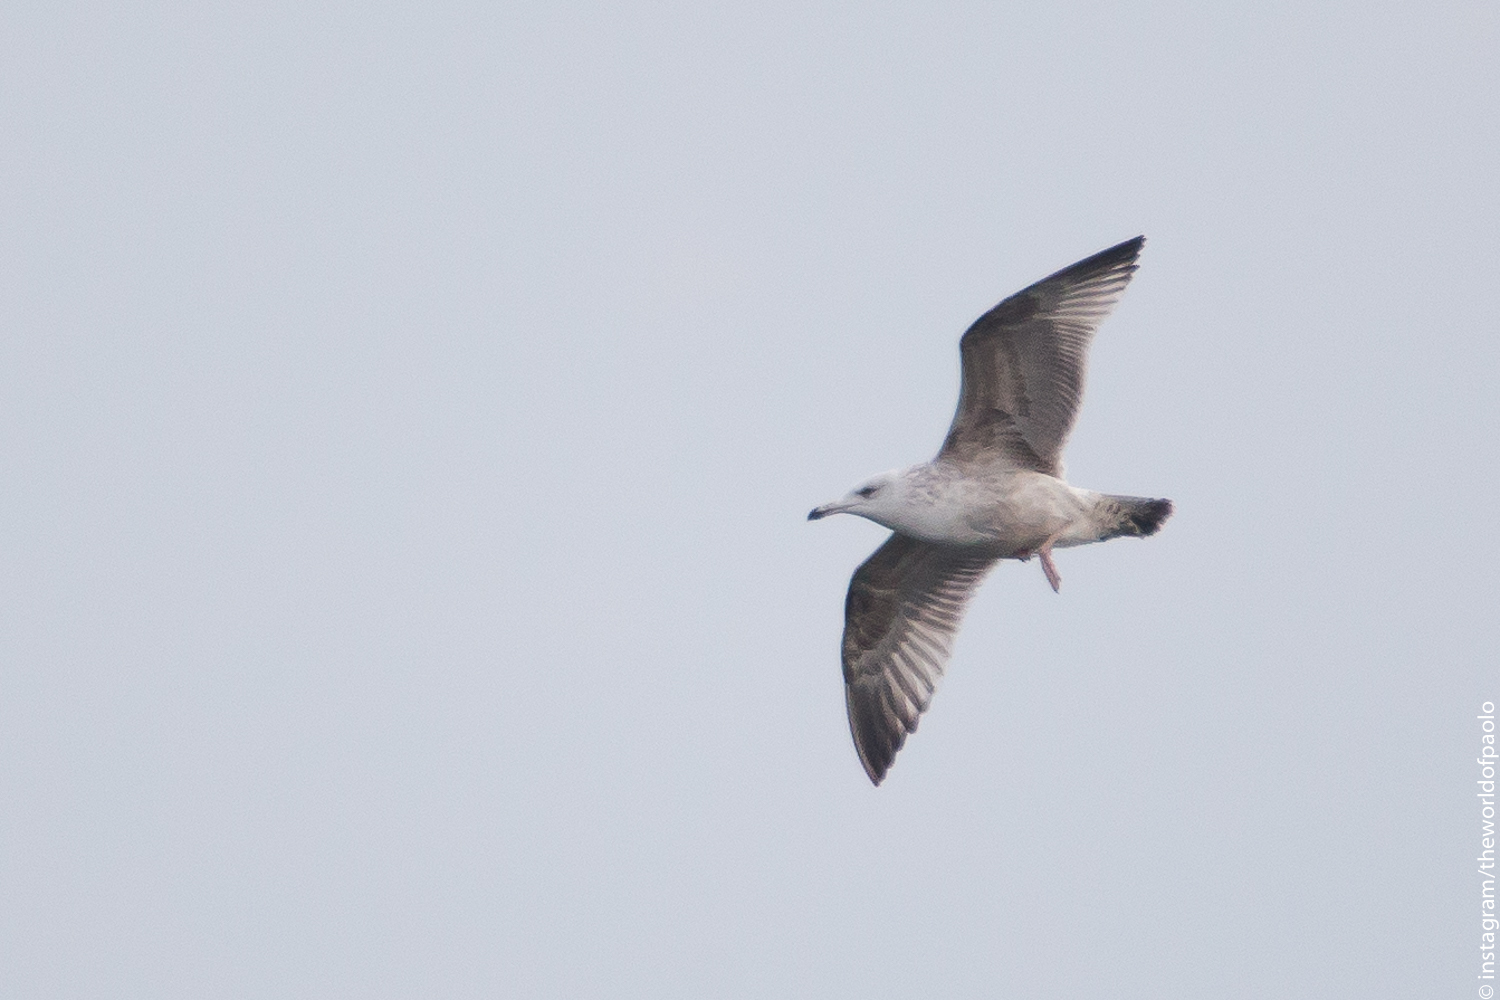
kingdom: Animalia
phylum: Chordata
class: Aves
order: Charadriiformes
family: Laridae
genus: Larus
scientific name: Larus michahellis
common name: Yellow-legged gull
